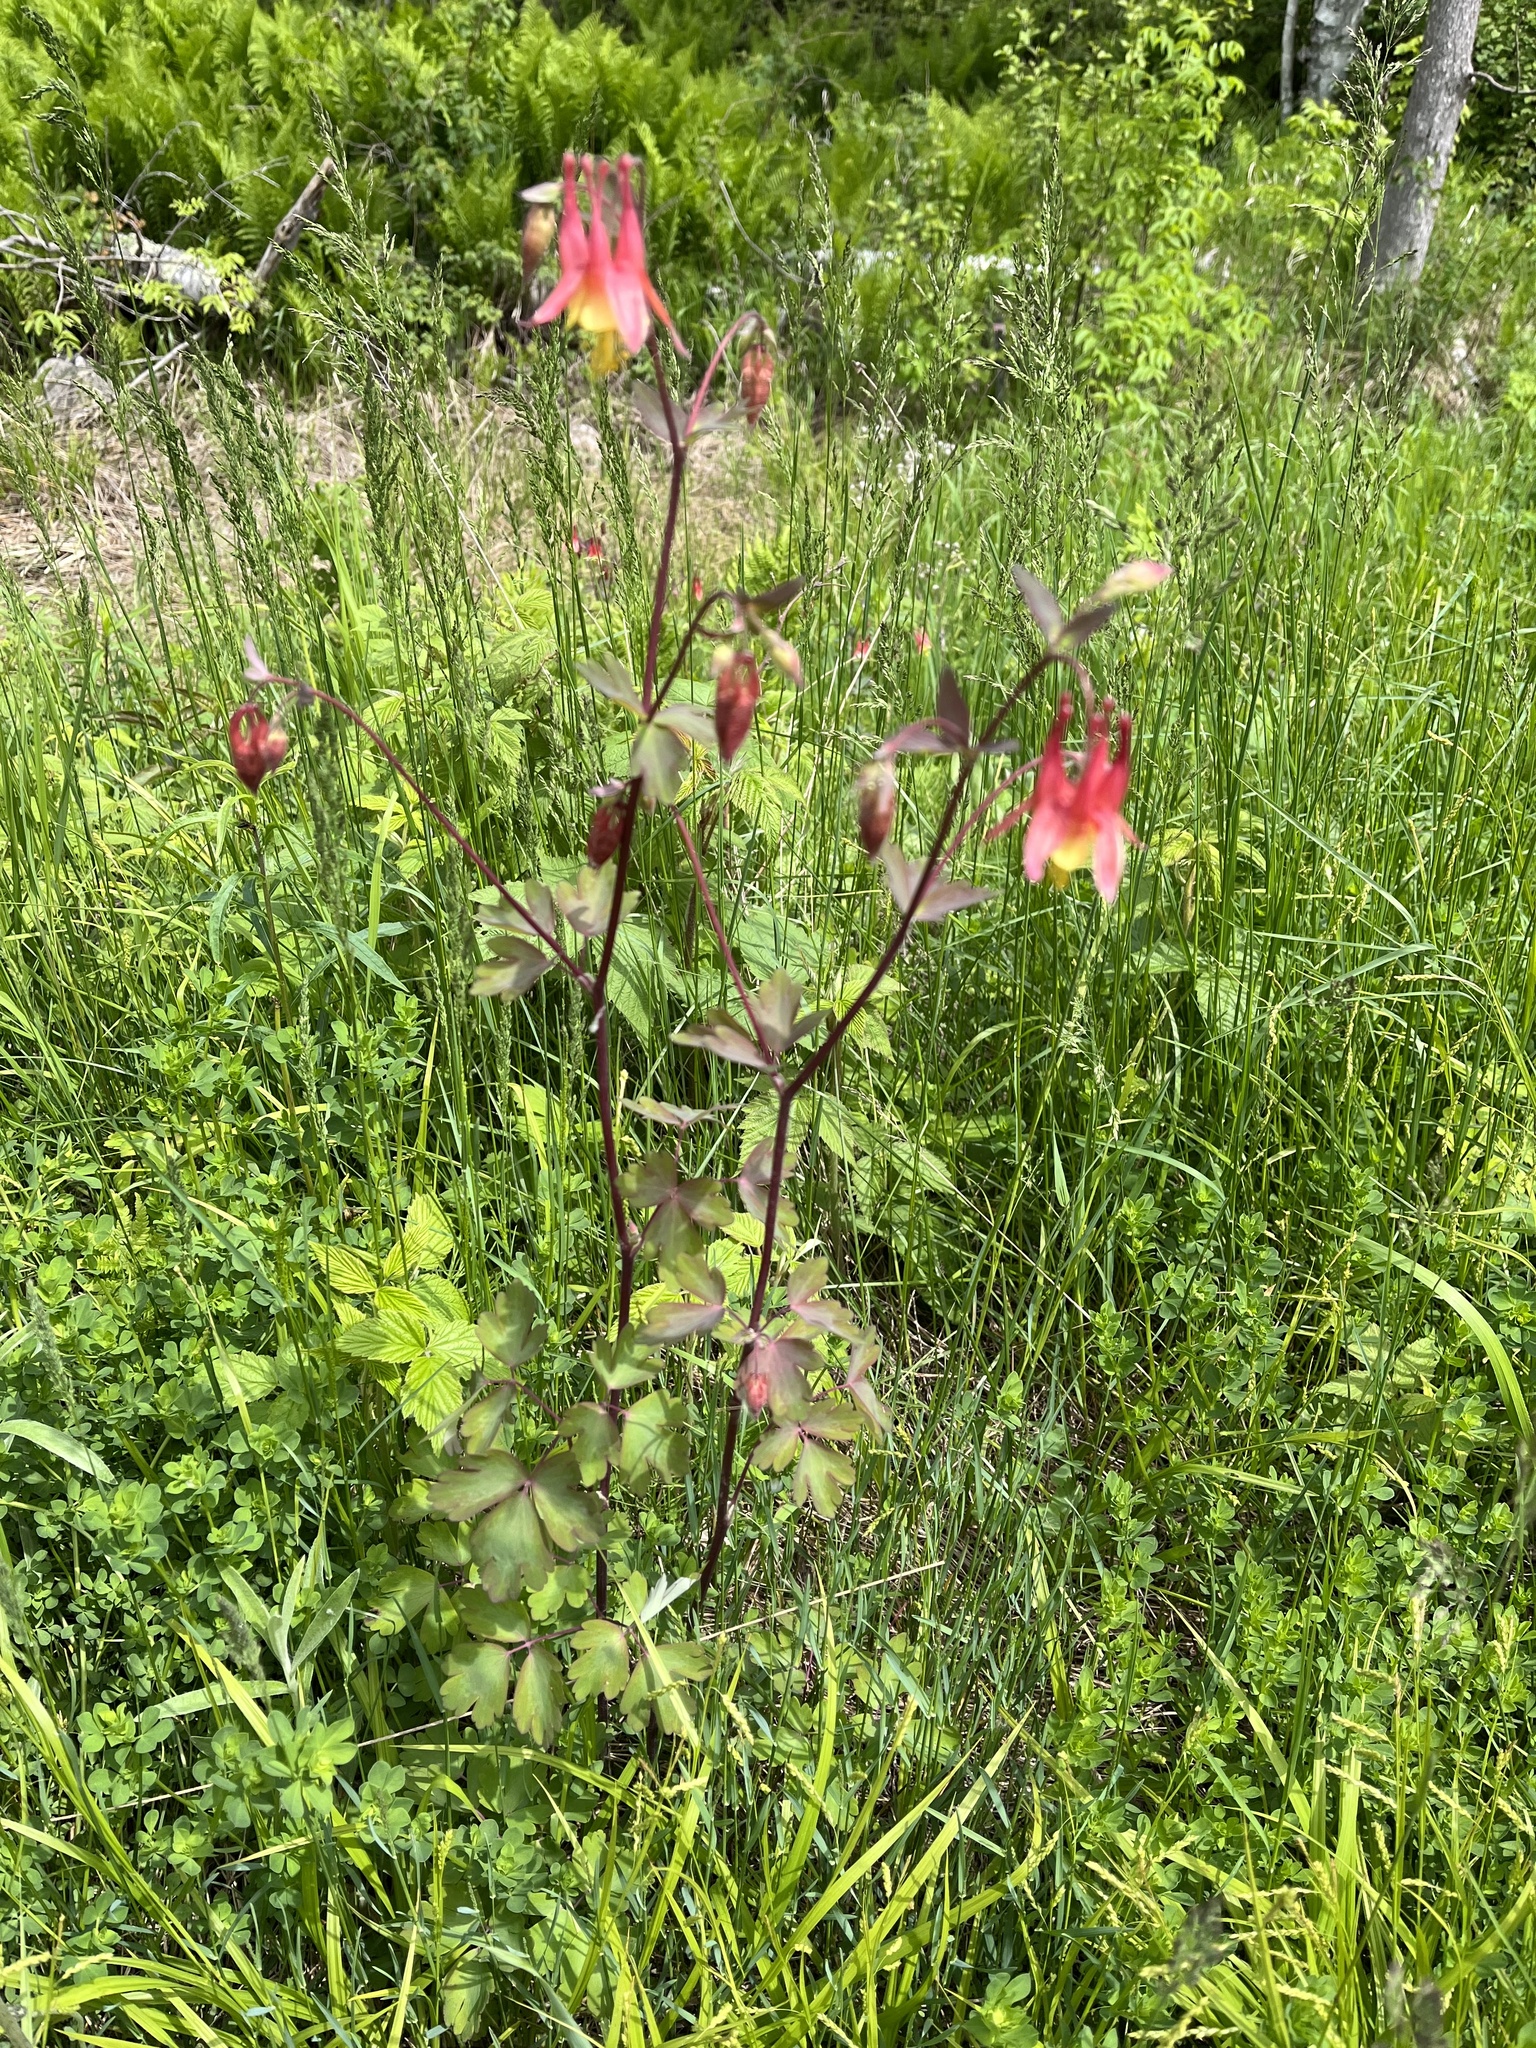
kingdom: Plantae
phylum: Tracheophyta
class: Magnoliopsida
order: Ranunculales
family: Ranunculaceae
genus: Aquilegia
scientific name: Aquilegia canadensis
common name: American columbine
